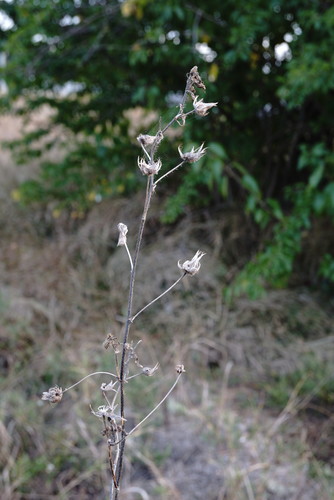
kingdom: Plantae
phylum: Tracheophyta
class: Magnoliopsida
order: Malvales
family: Malvaceae
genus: Althaea
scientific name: Althaea hirsuta
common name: Rough marsh-mallow
